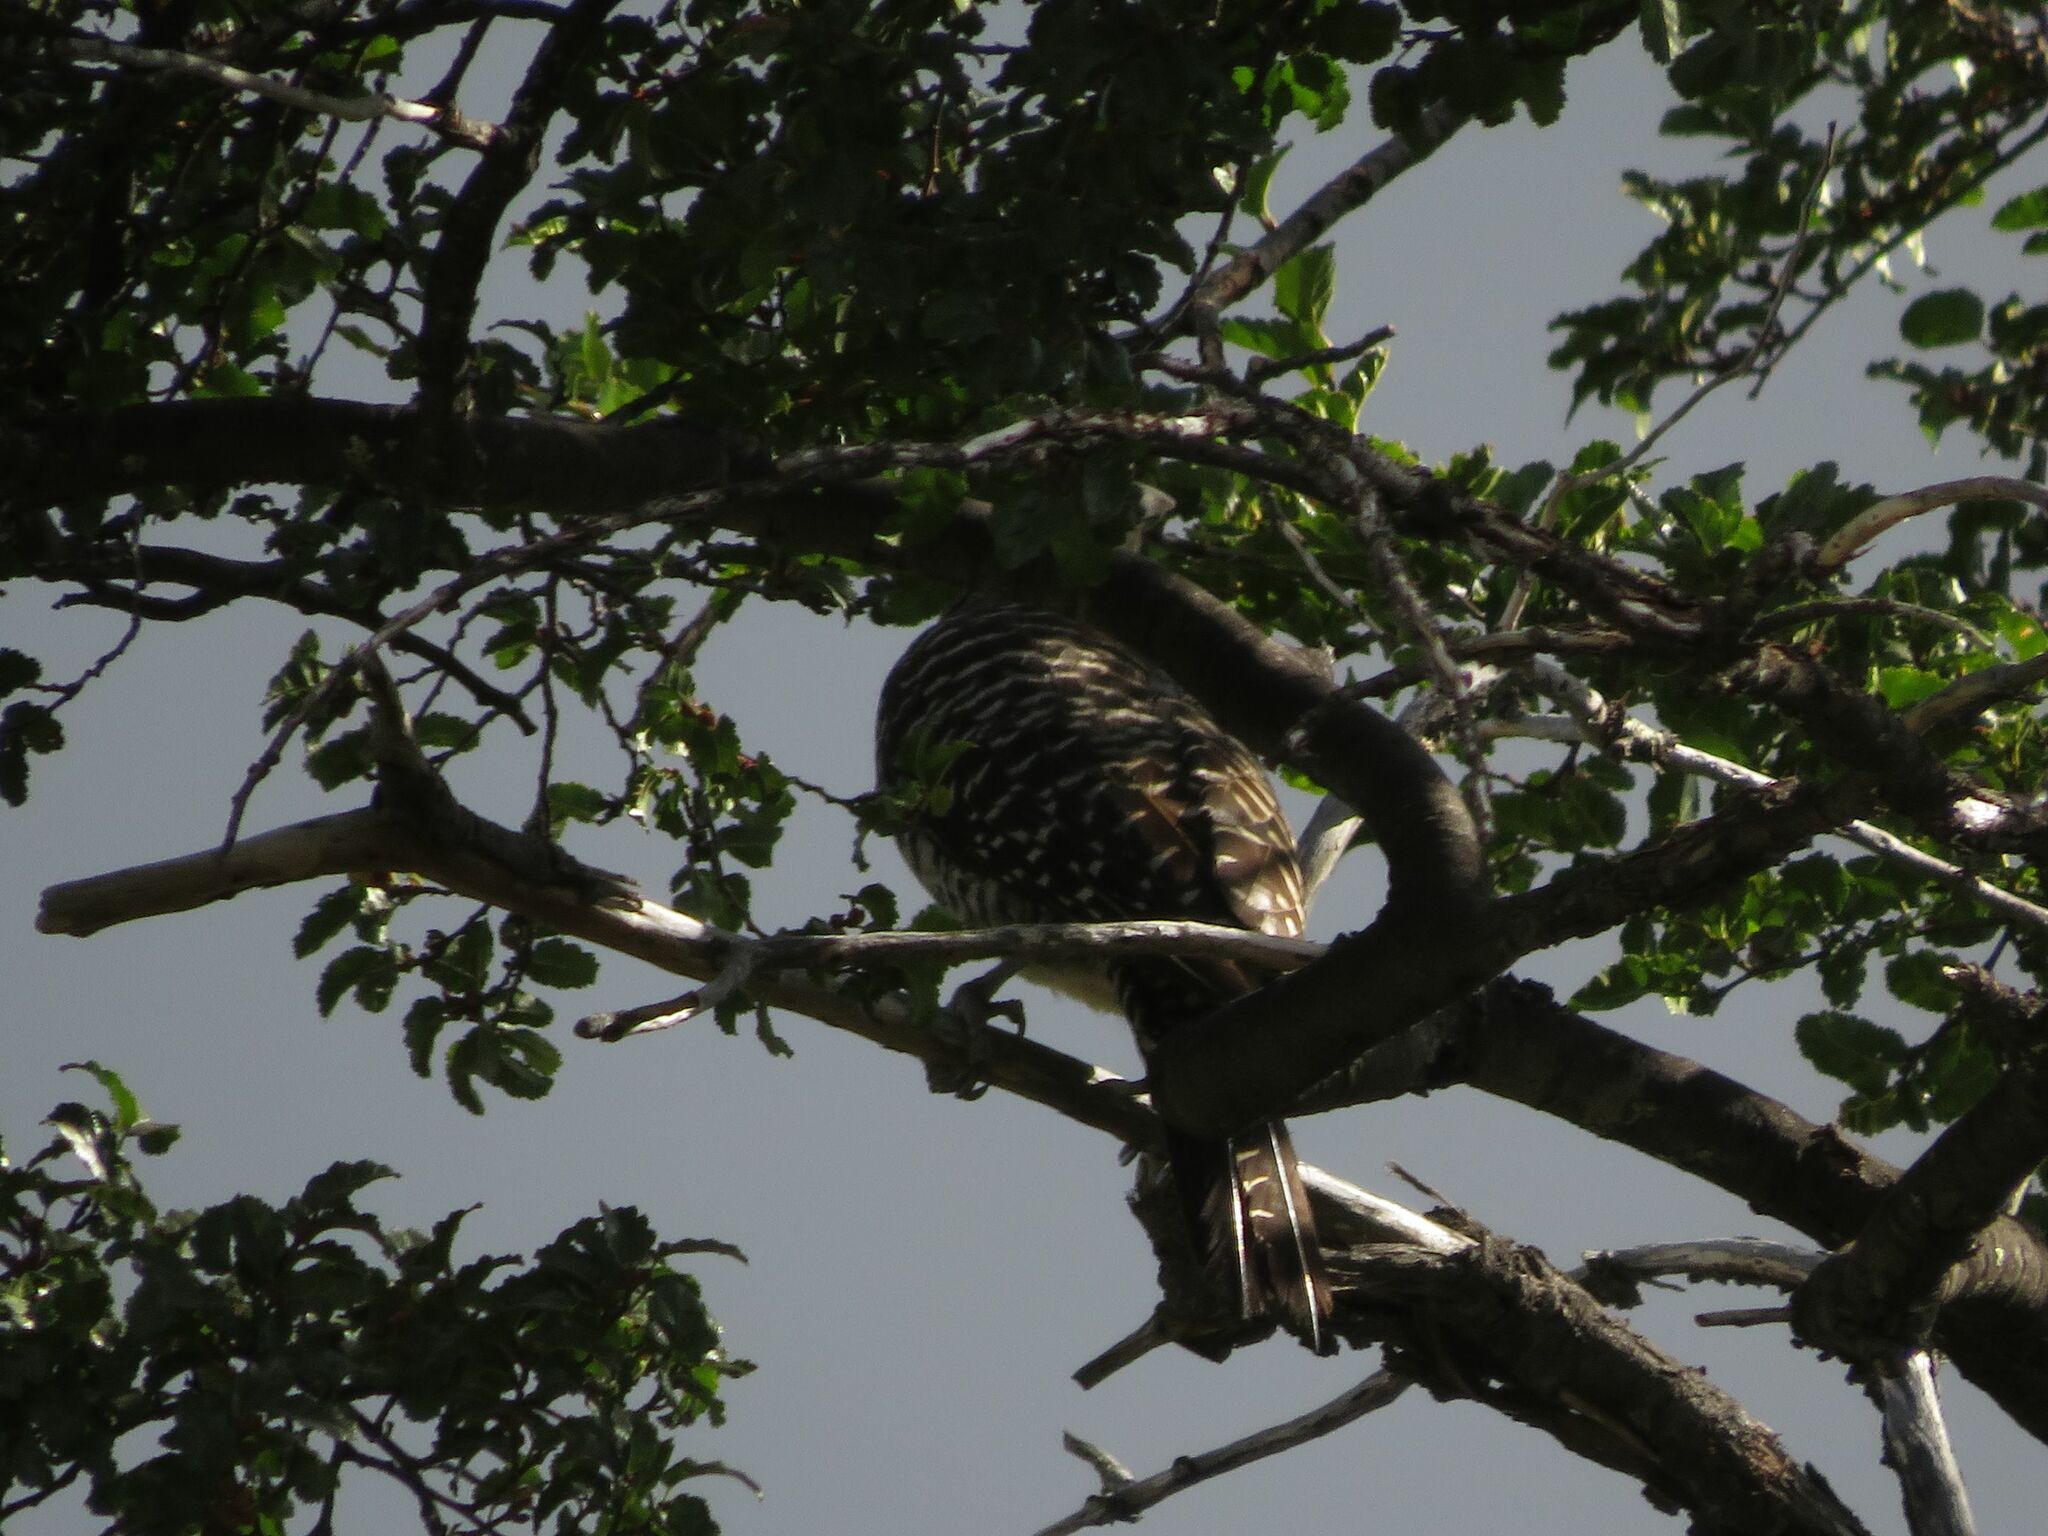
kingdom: Animalia
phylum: Chordata
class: Aves
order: Piciformes
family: Picidae
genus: Colaptes
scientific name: Colaptes pitius
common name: Chilean flicker
